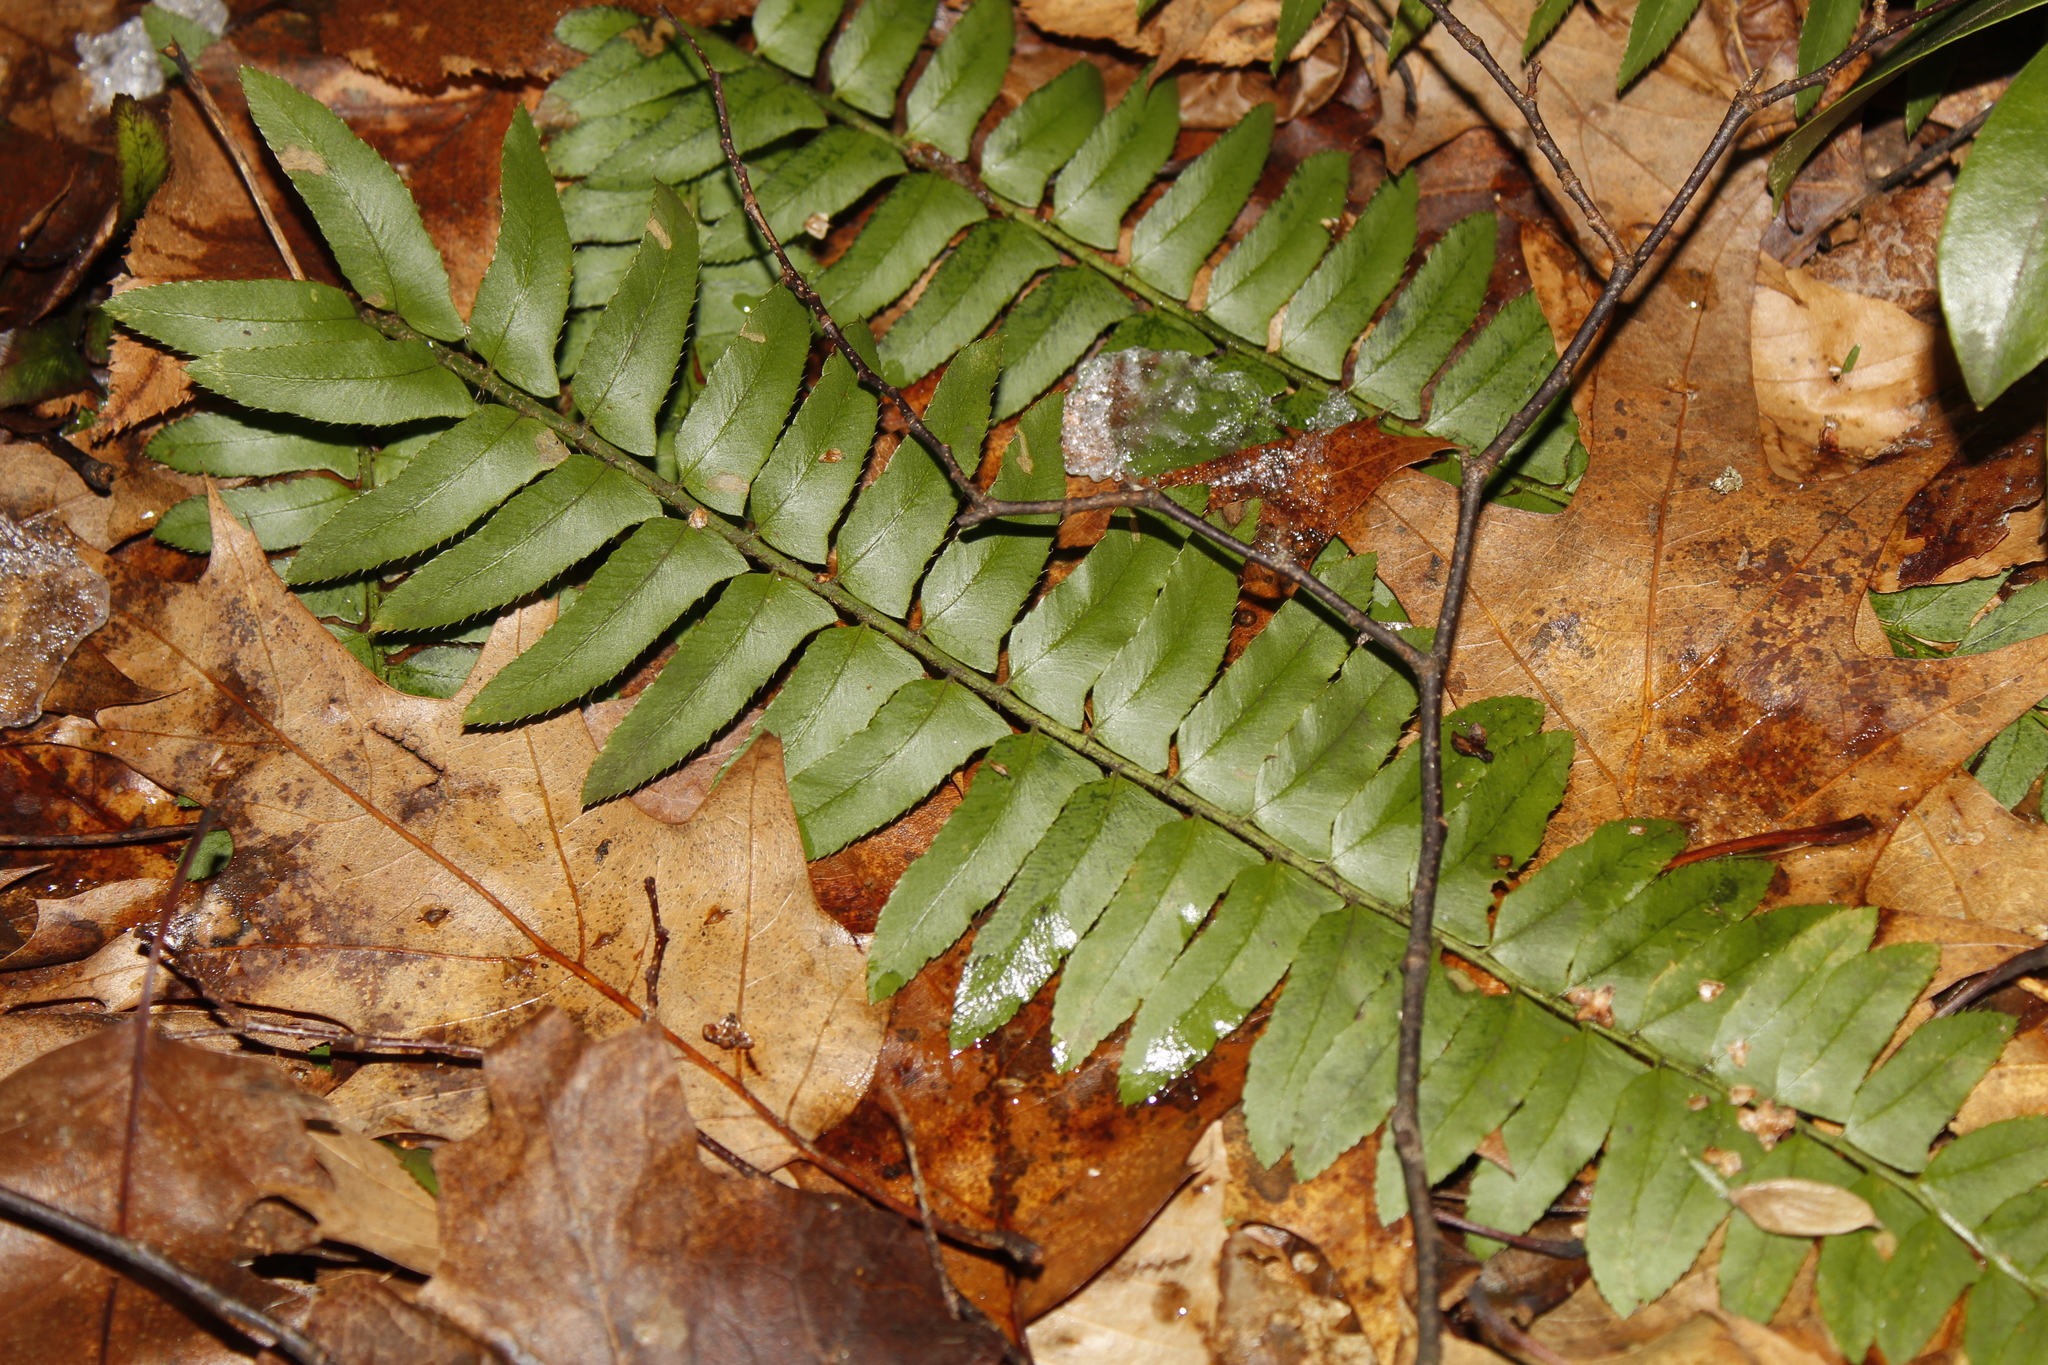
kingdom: Plantae
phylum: Tracheophyta
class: Polypodiopsida
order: Polypodiales
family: Dryopteridaceae
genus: Polystichum
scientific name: Polystichum acrostichoides
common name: Christmas fern
